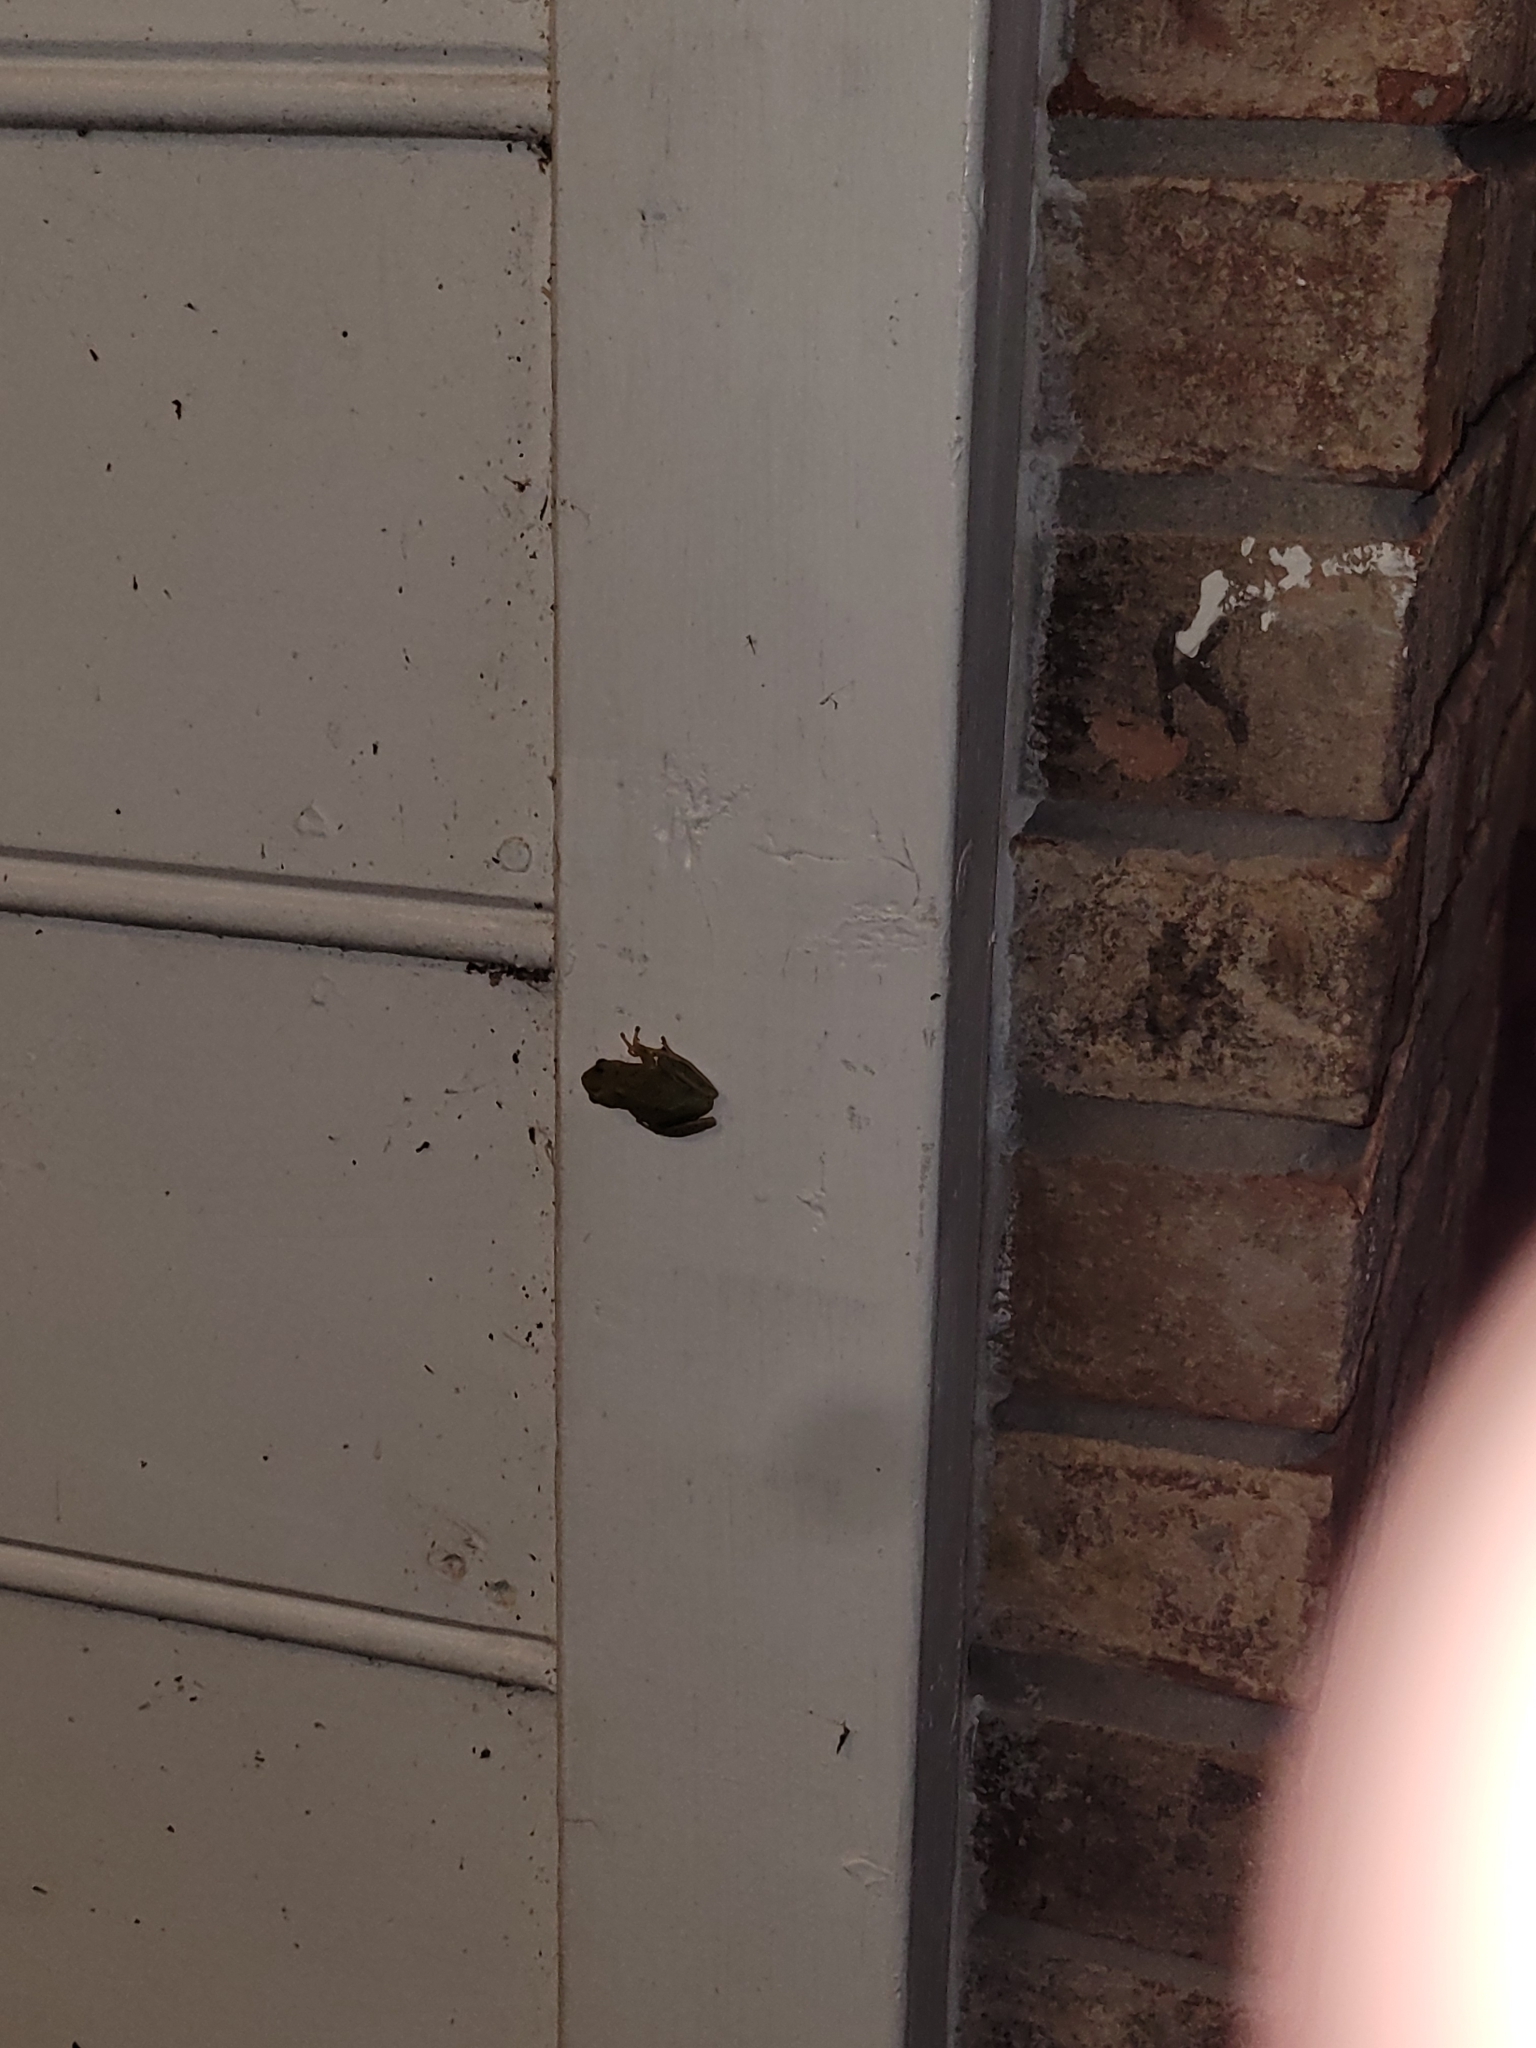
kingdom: Animalia
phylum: Chordata
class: Amphibia
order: Anura
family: Hylidae
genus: Dryophytes
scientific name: Dryophytes squirellus
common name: Squirrel treefrog
